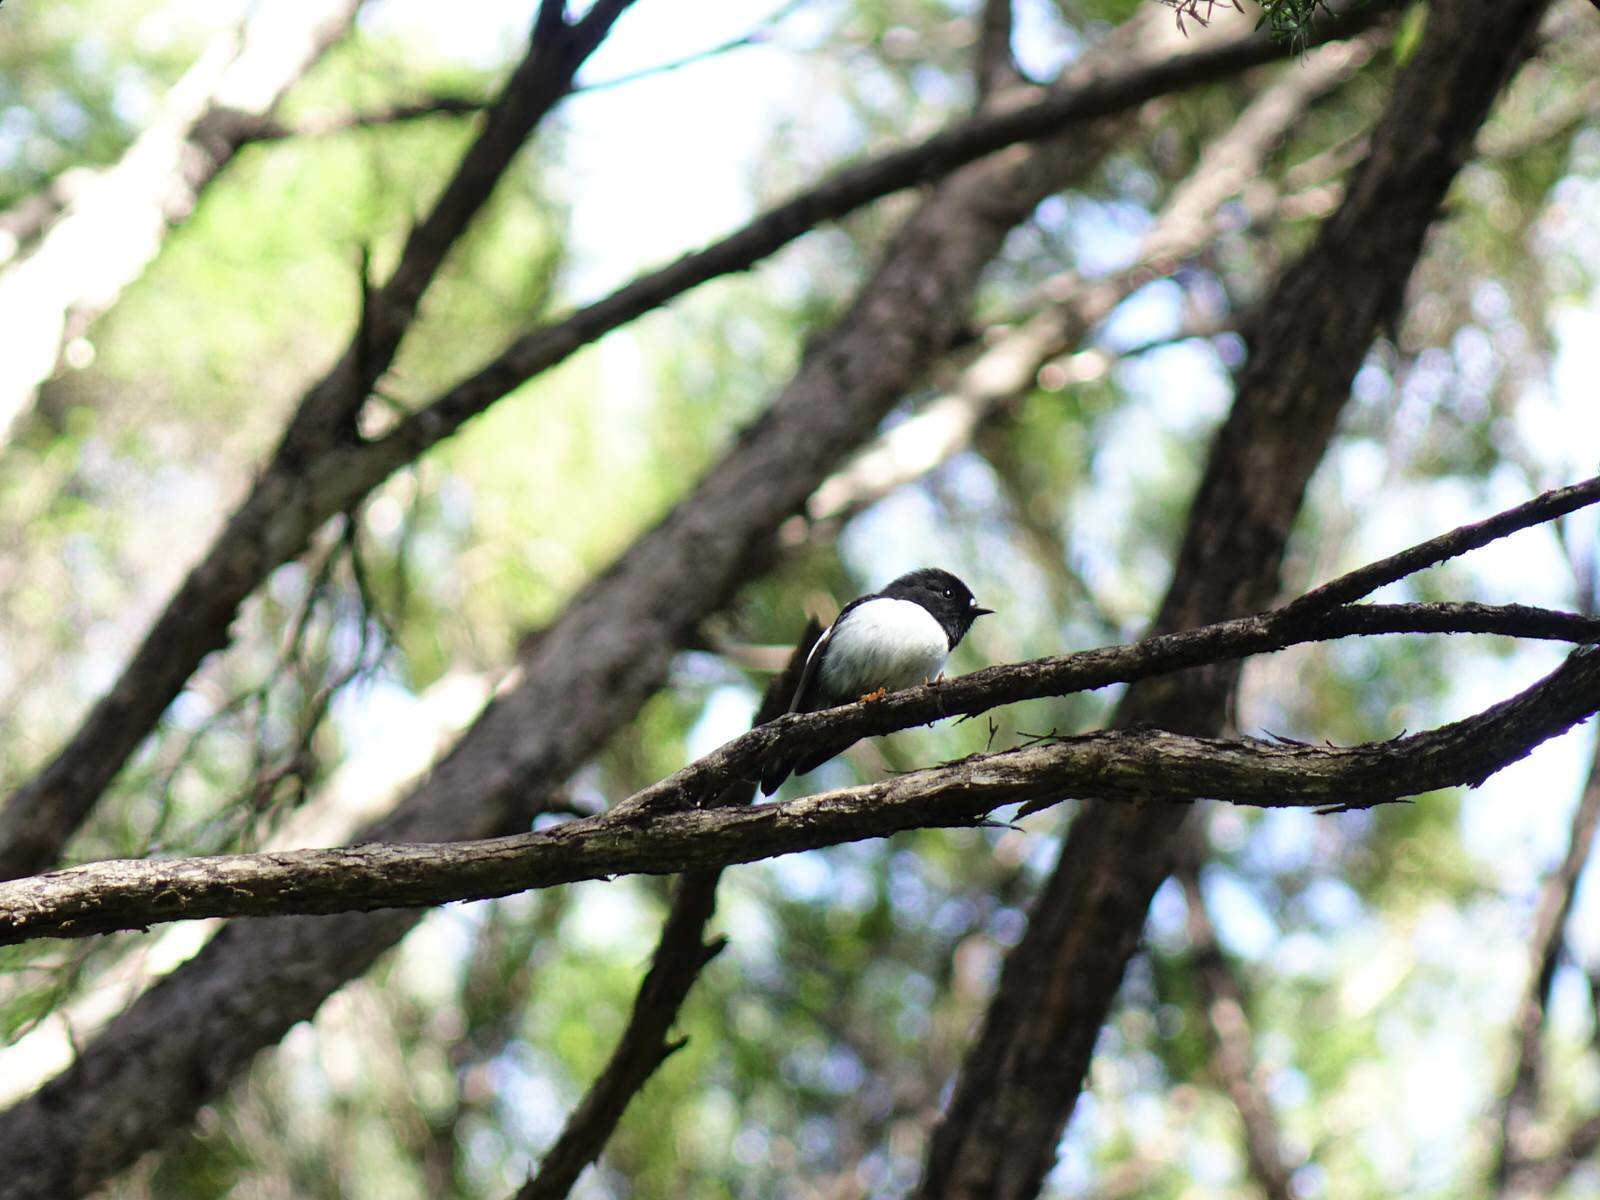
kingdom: Animalia
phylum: Chordata
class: Aves
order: Passeriformes
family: Petroicidae
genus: Petroica
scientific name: Petroica macrocephala
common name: Tomtit
